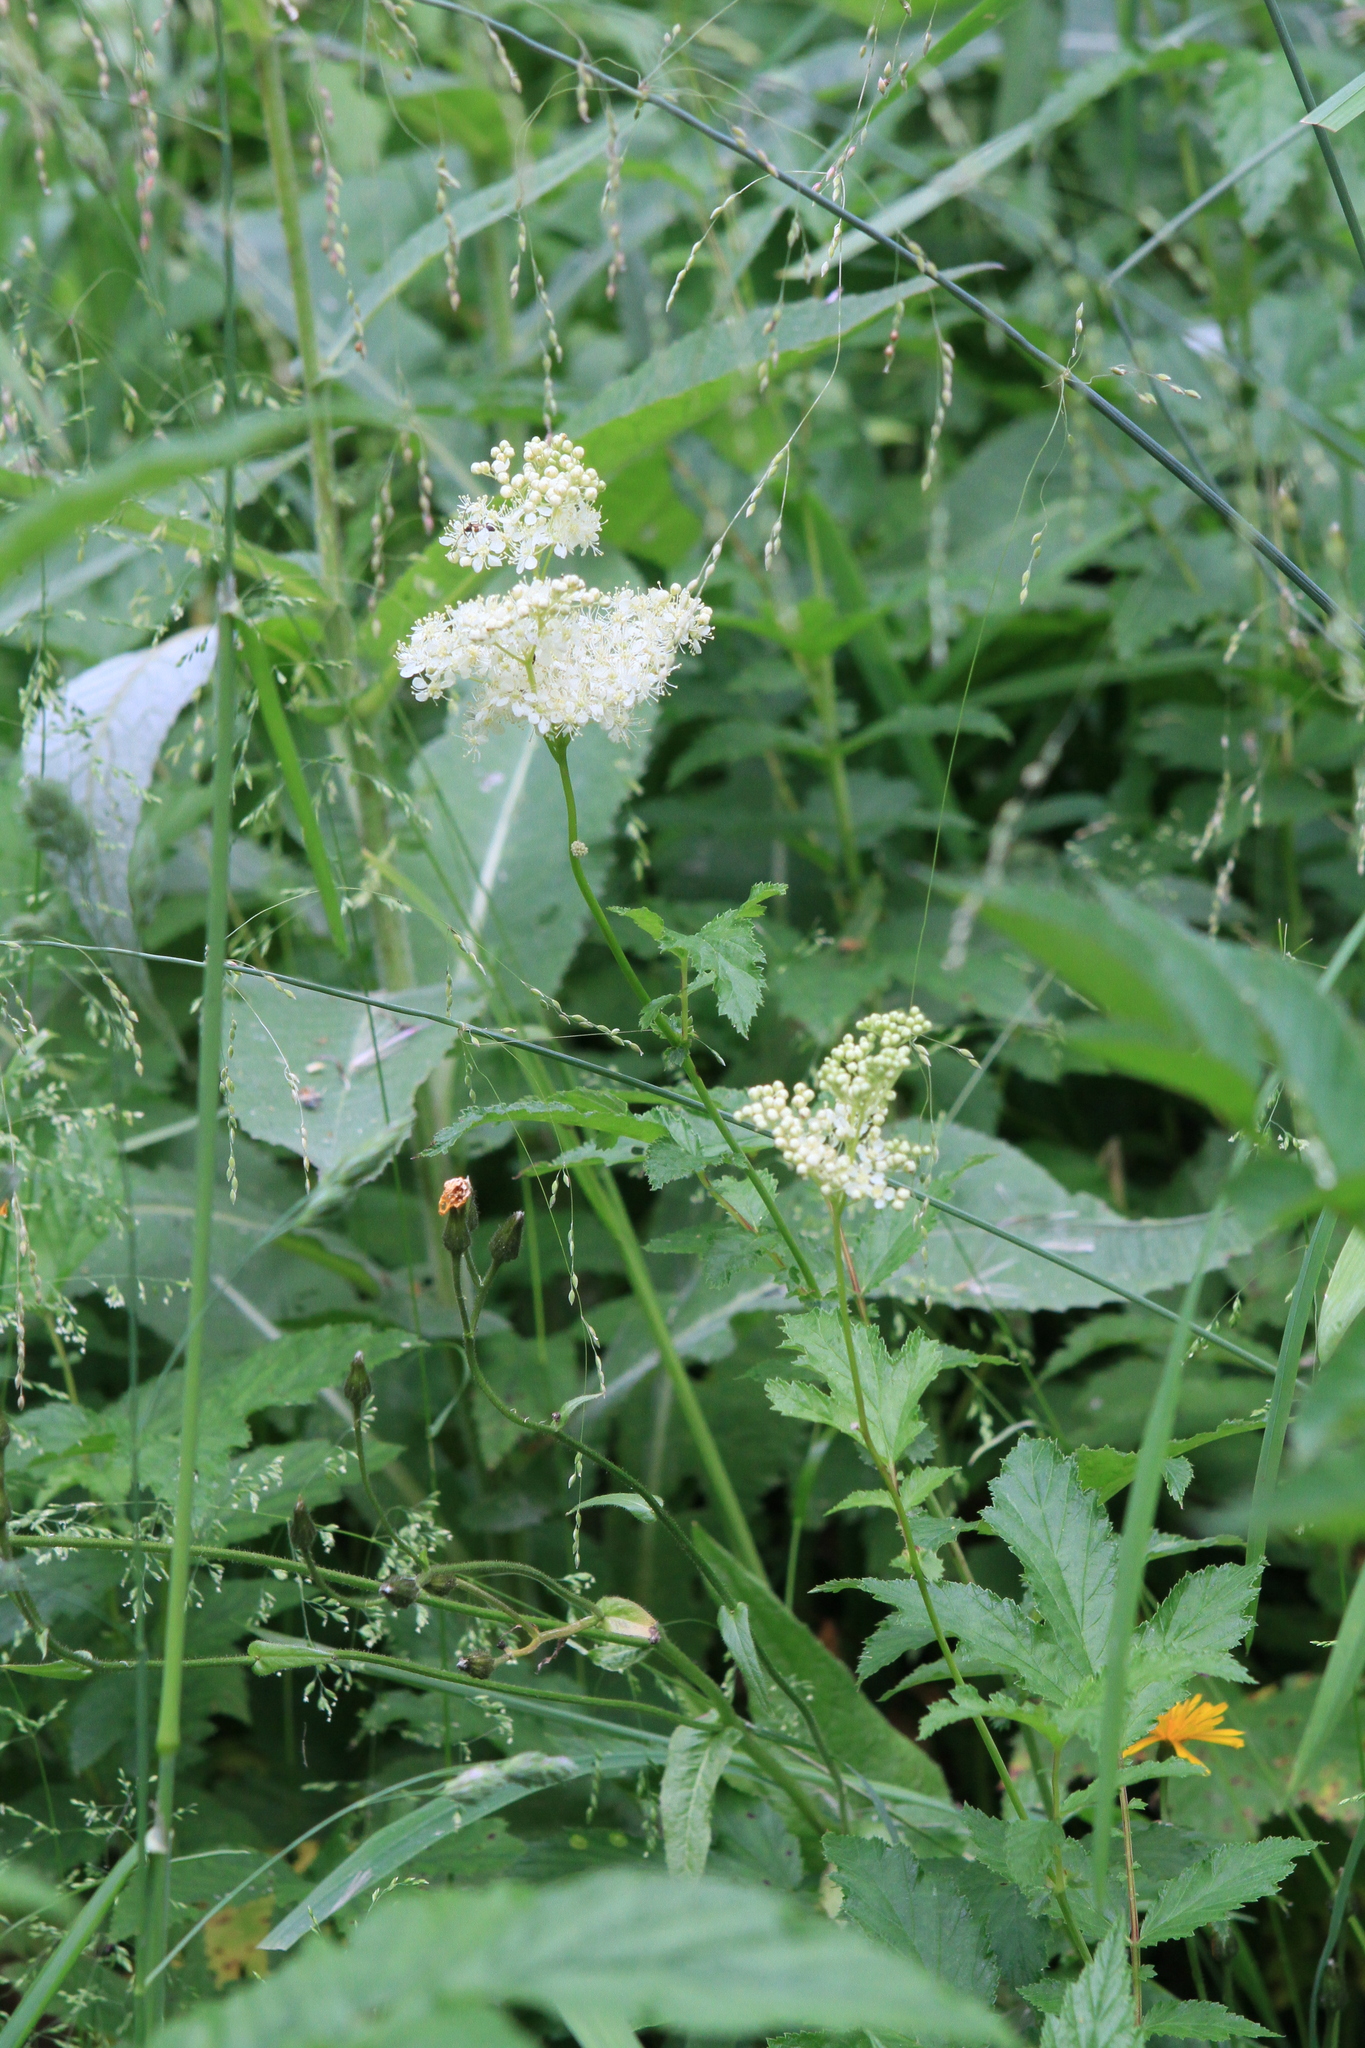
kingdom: Plantae
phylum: Tracheophyta
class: Magnoliopsida
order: Rosales
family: Rosaceae
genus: Filipendula
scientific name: Filipendula ulmaria
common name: Meadowsweet
